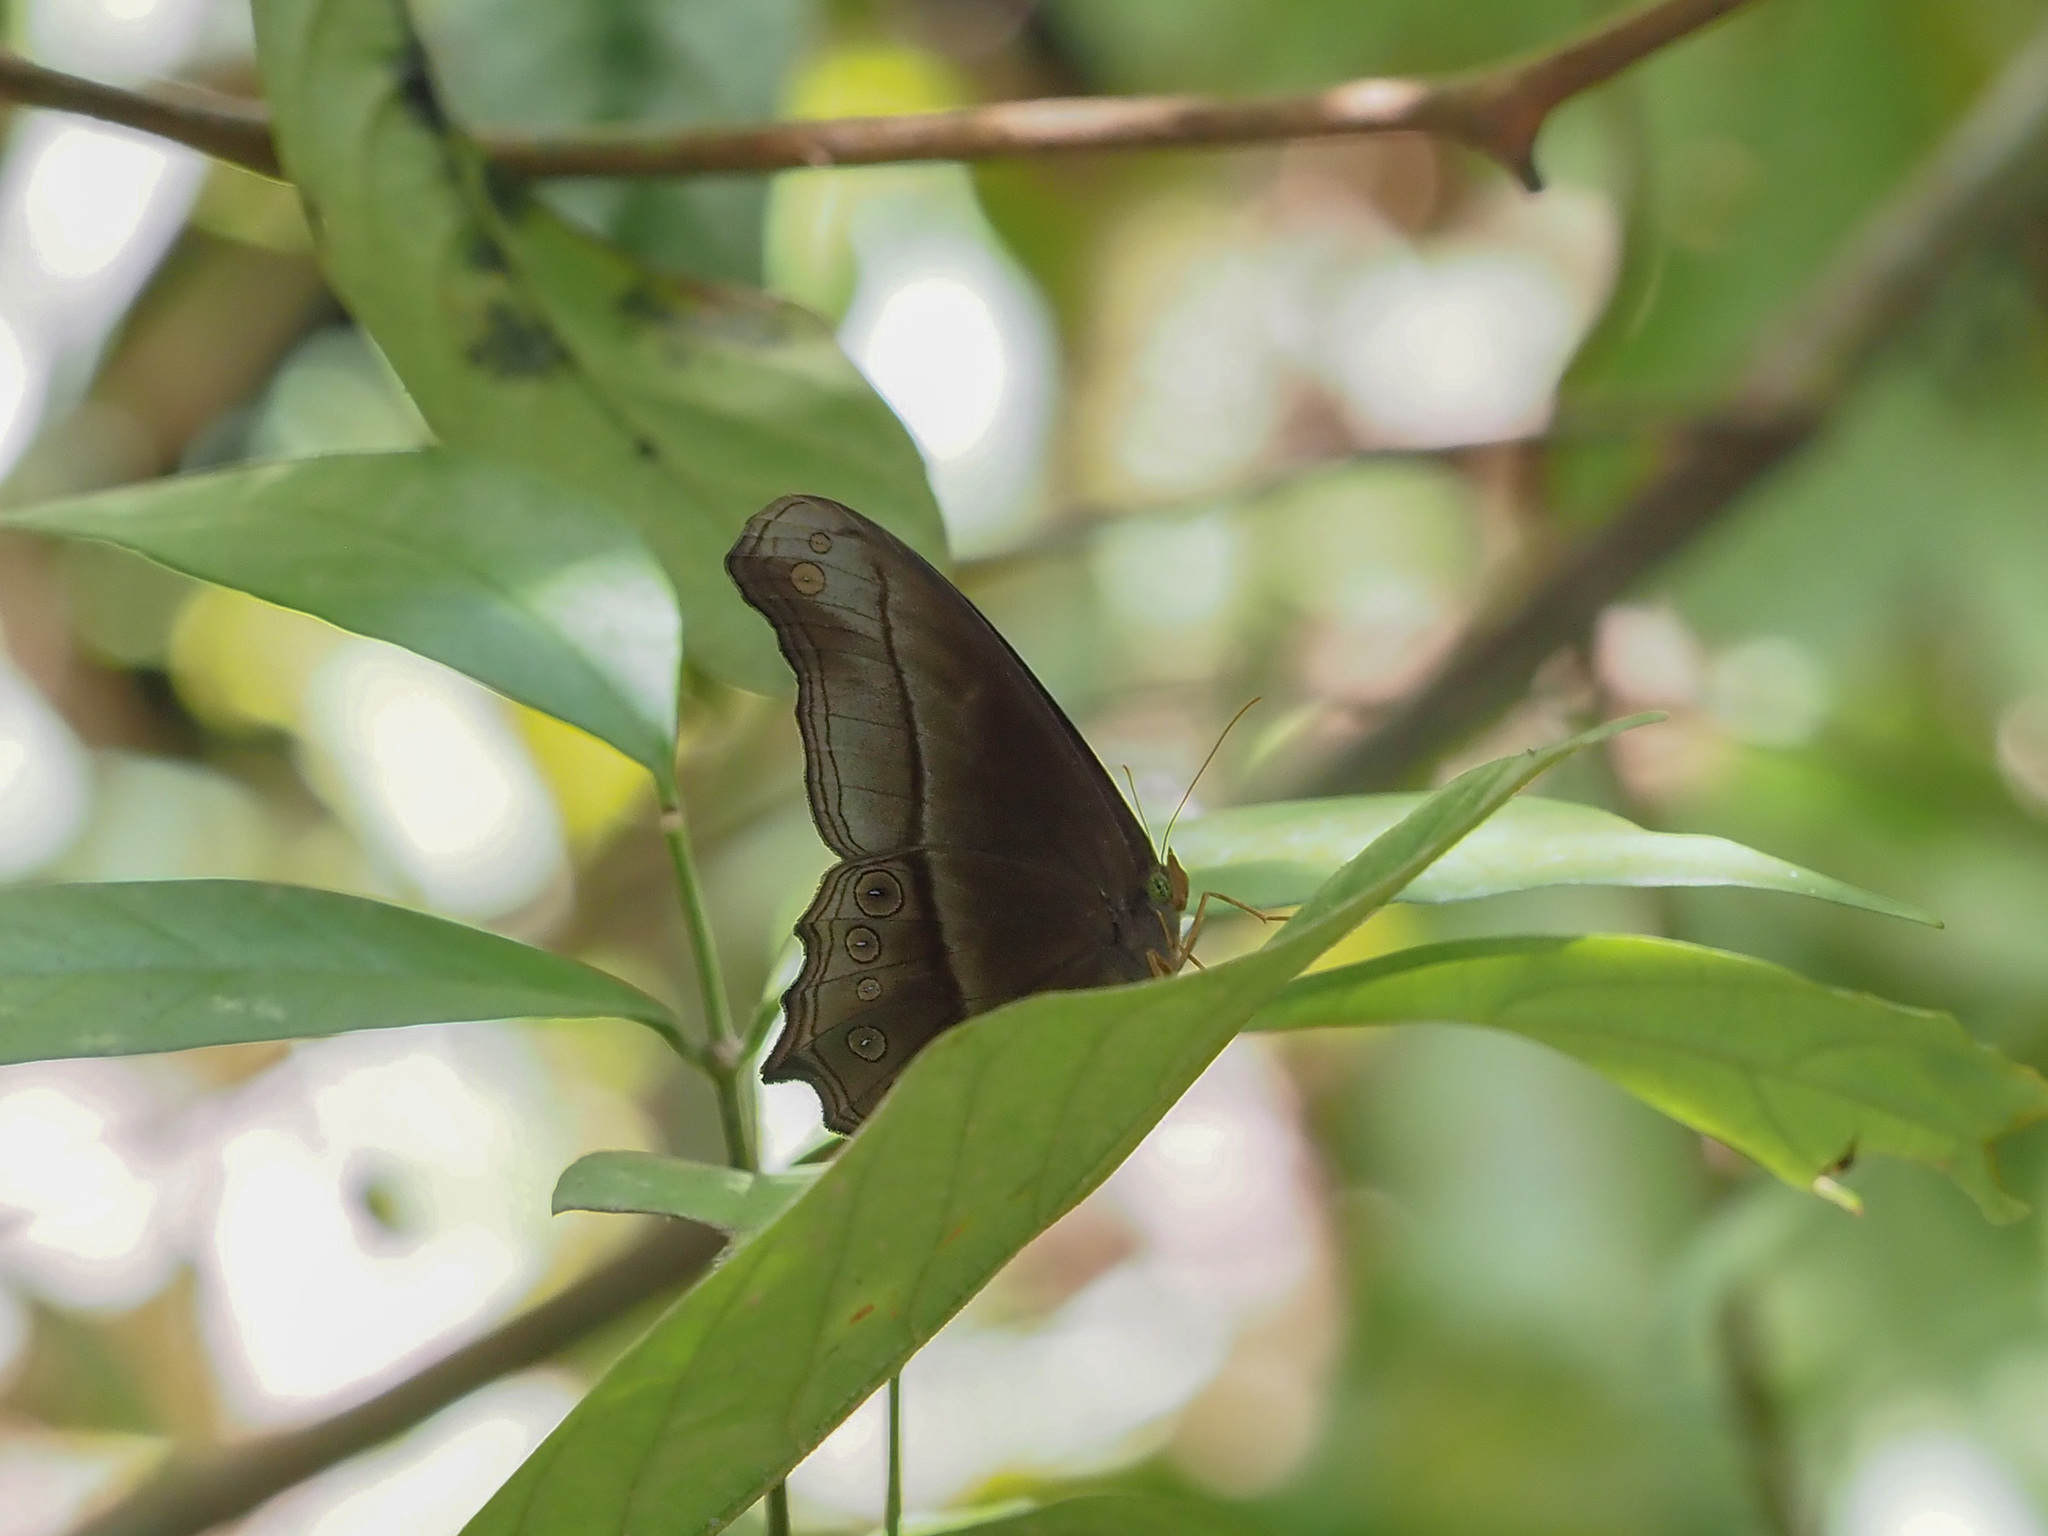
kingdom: Animalia
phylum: Arthropoda
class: Insecta
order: Lepidoptera
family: Nymphalidae
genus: Coelites
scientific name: Coelites epiminthia
